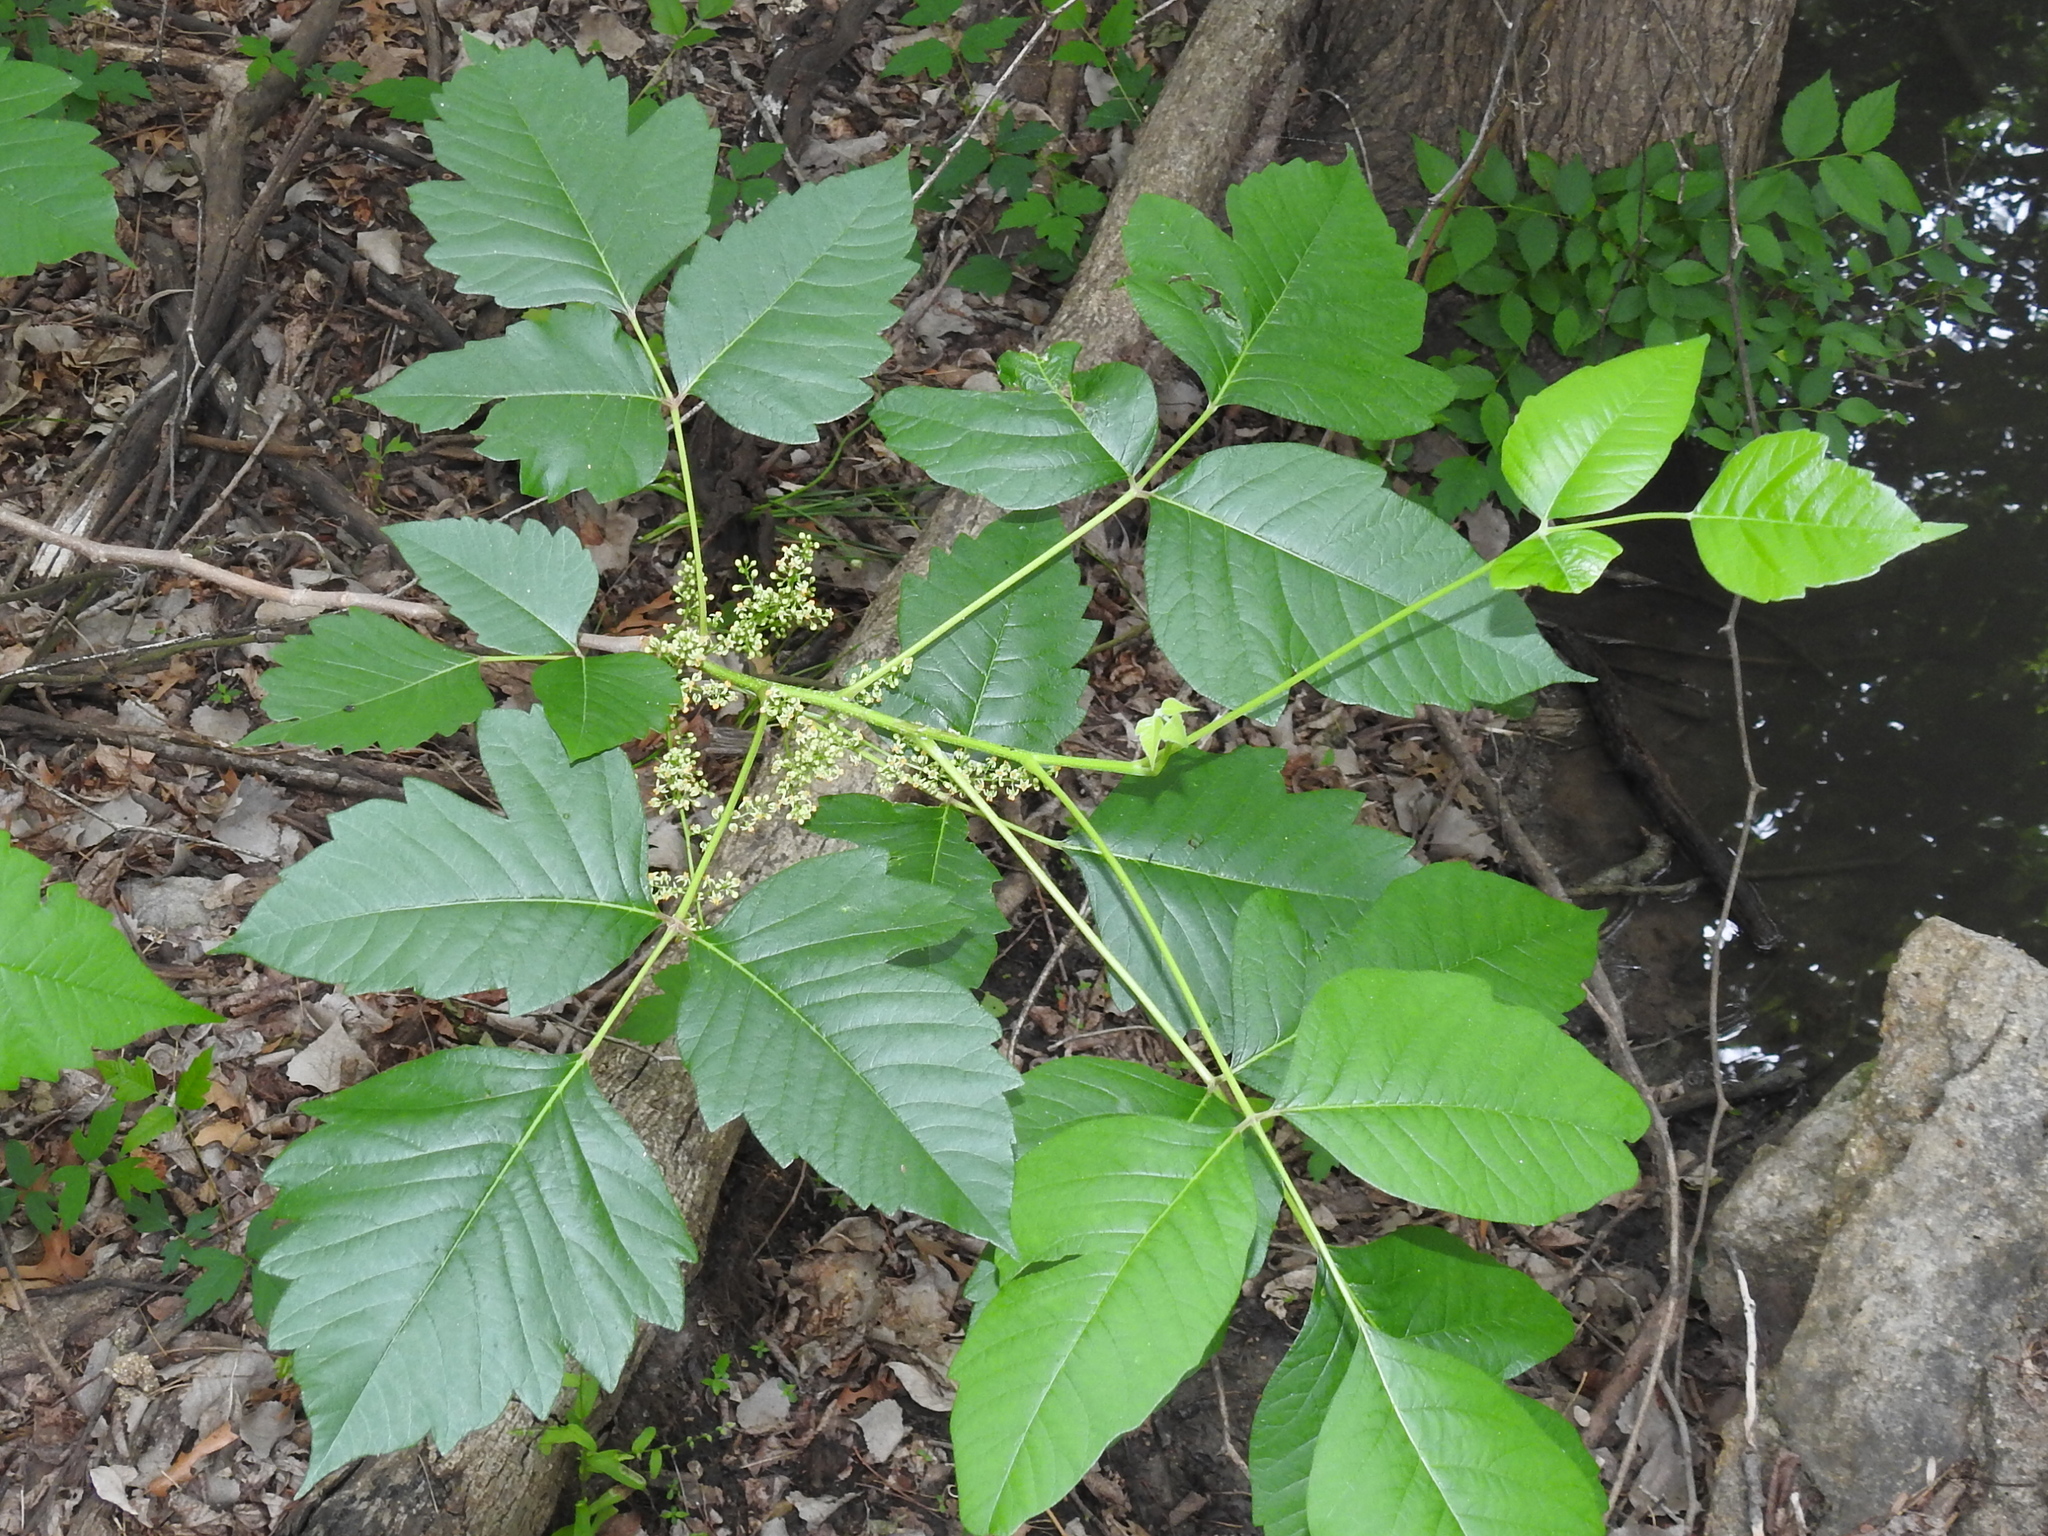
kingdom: Plantae
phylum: Tracheophyta
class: Magnoliopsida
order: Sapindales
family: Anacardiaceae
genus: Toxicodendron
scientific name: Toxicodendron radicans
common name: Poison ivy
